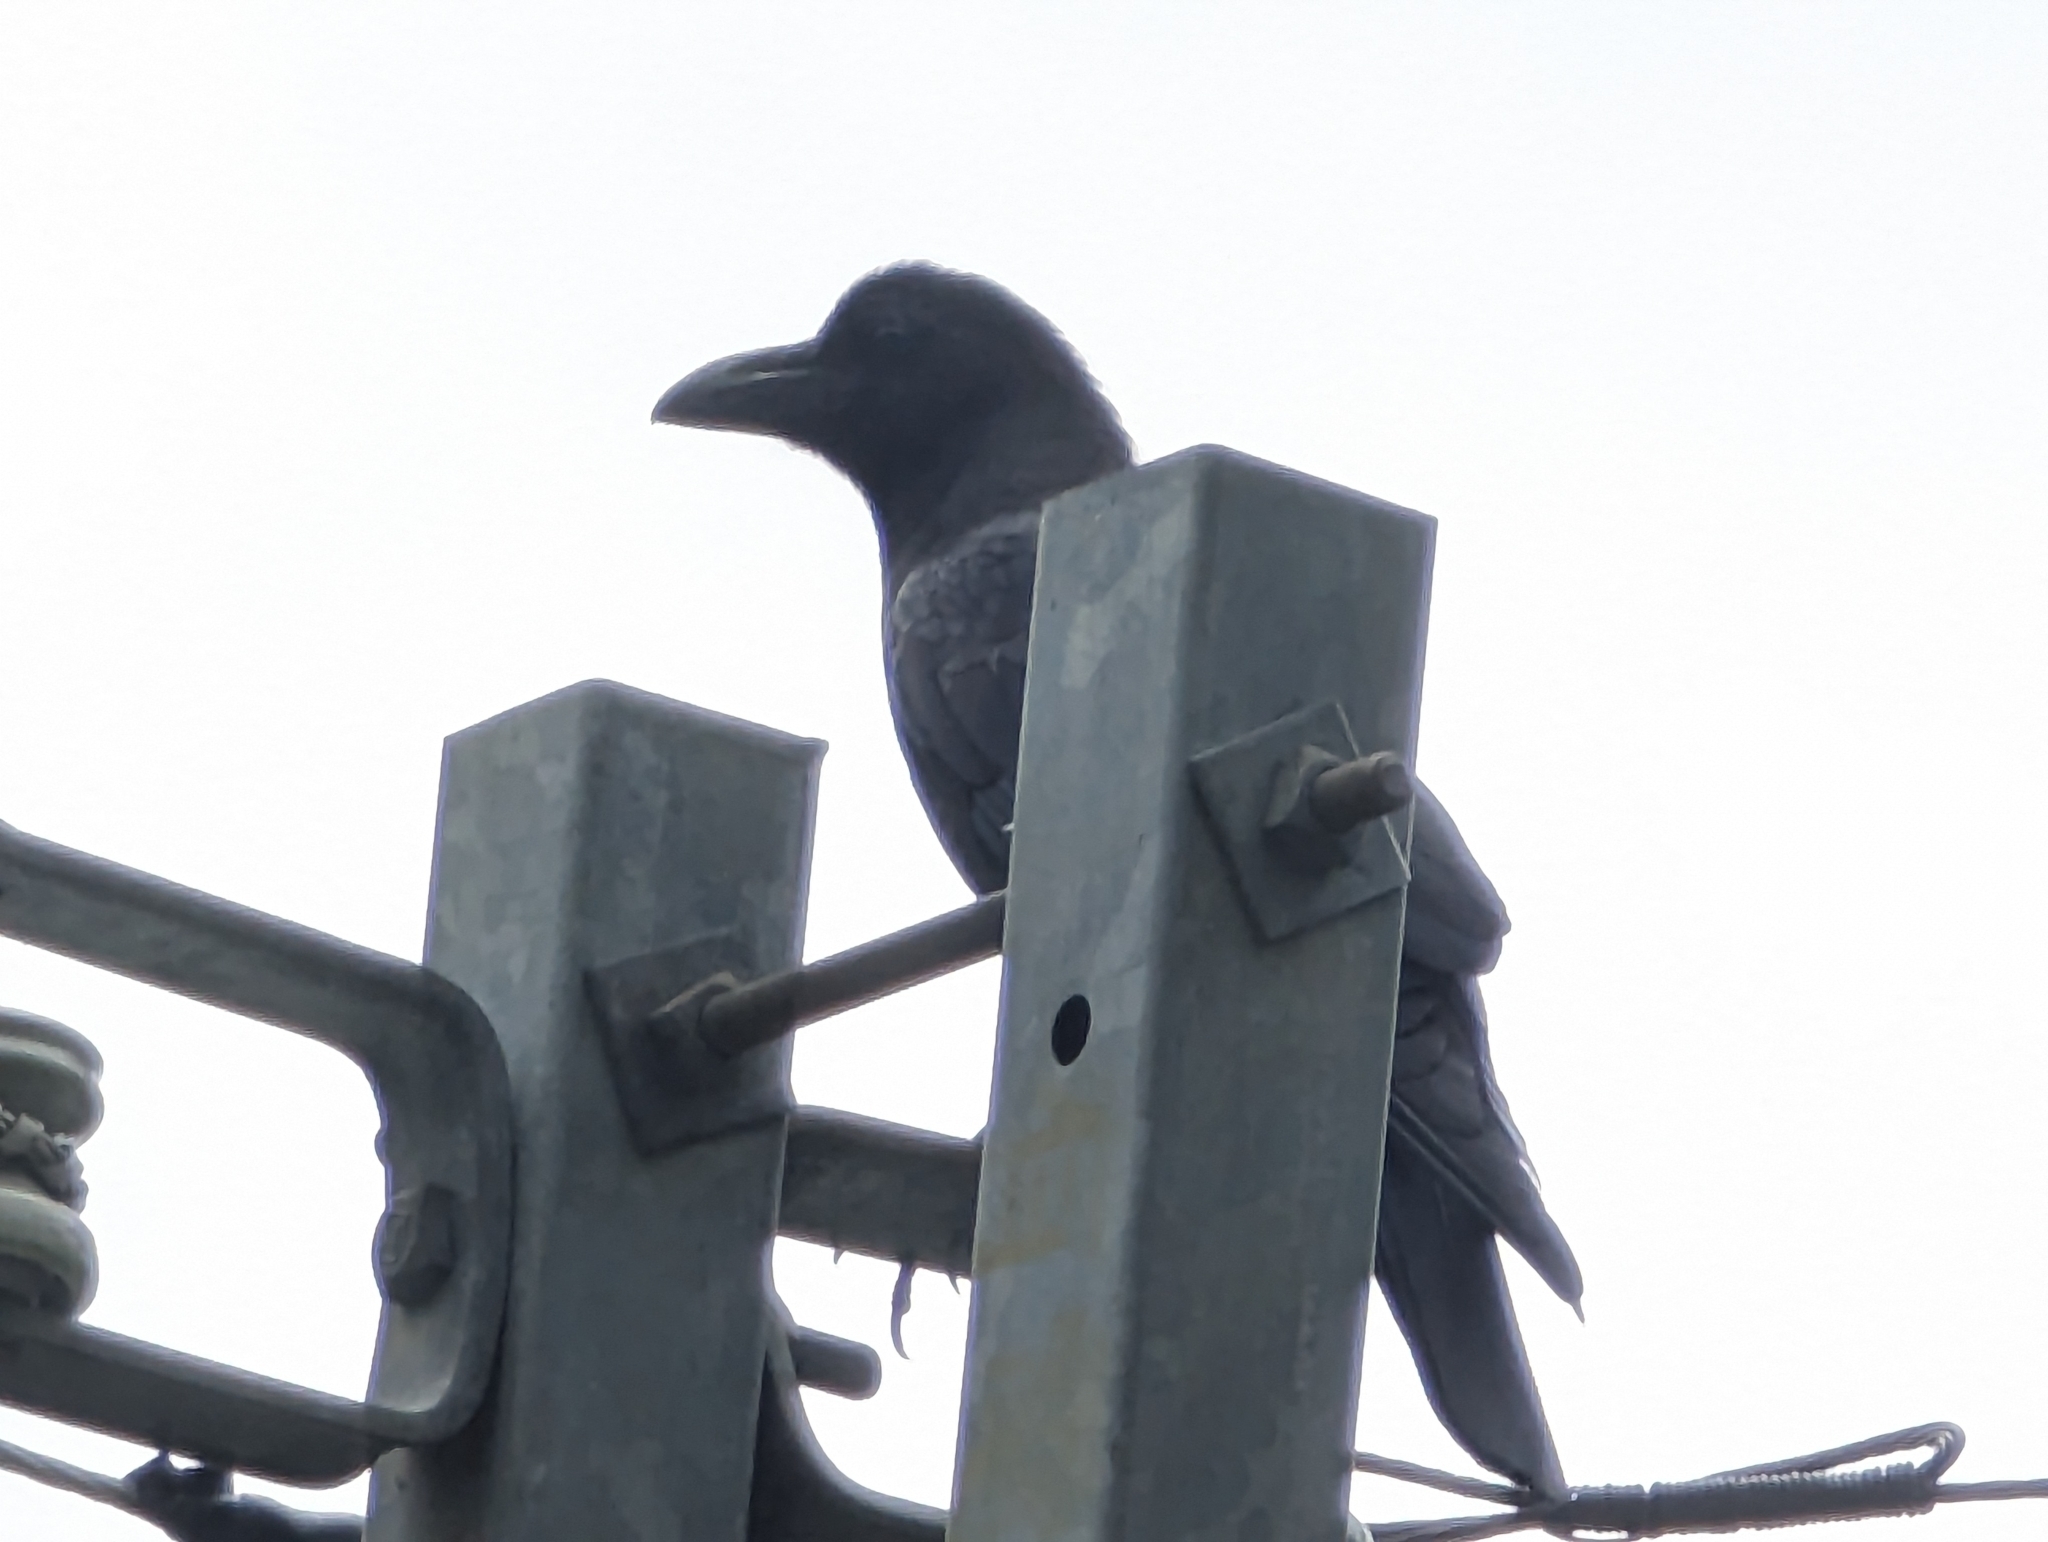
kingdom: Animalia
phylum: Chordata
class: Aves
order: Passeriformes
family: Corvidae
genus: Corvus
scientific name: Corvus macrorhynchos
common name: Large-billed crow
